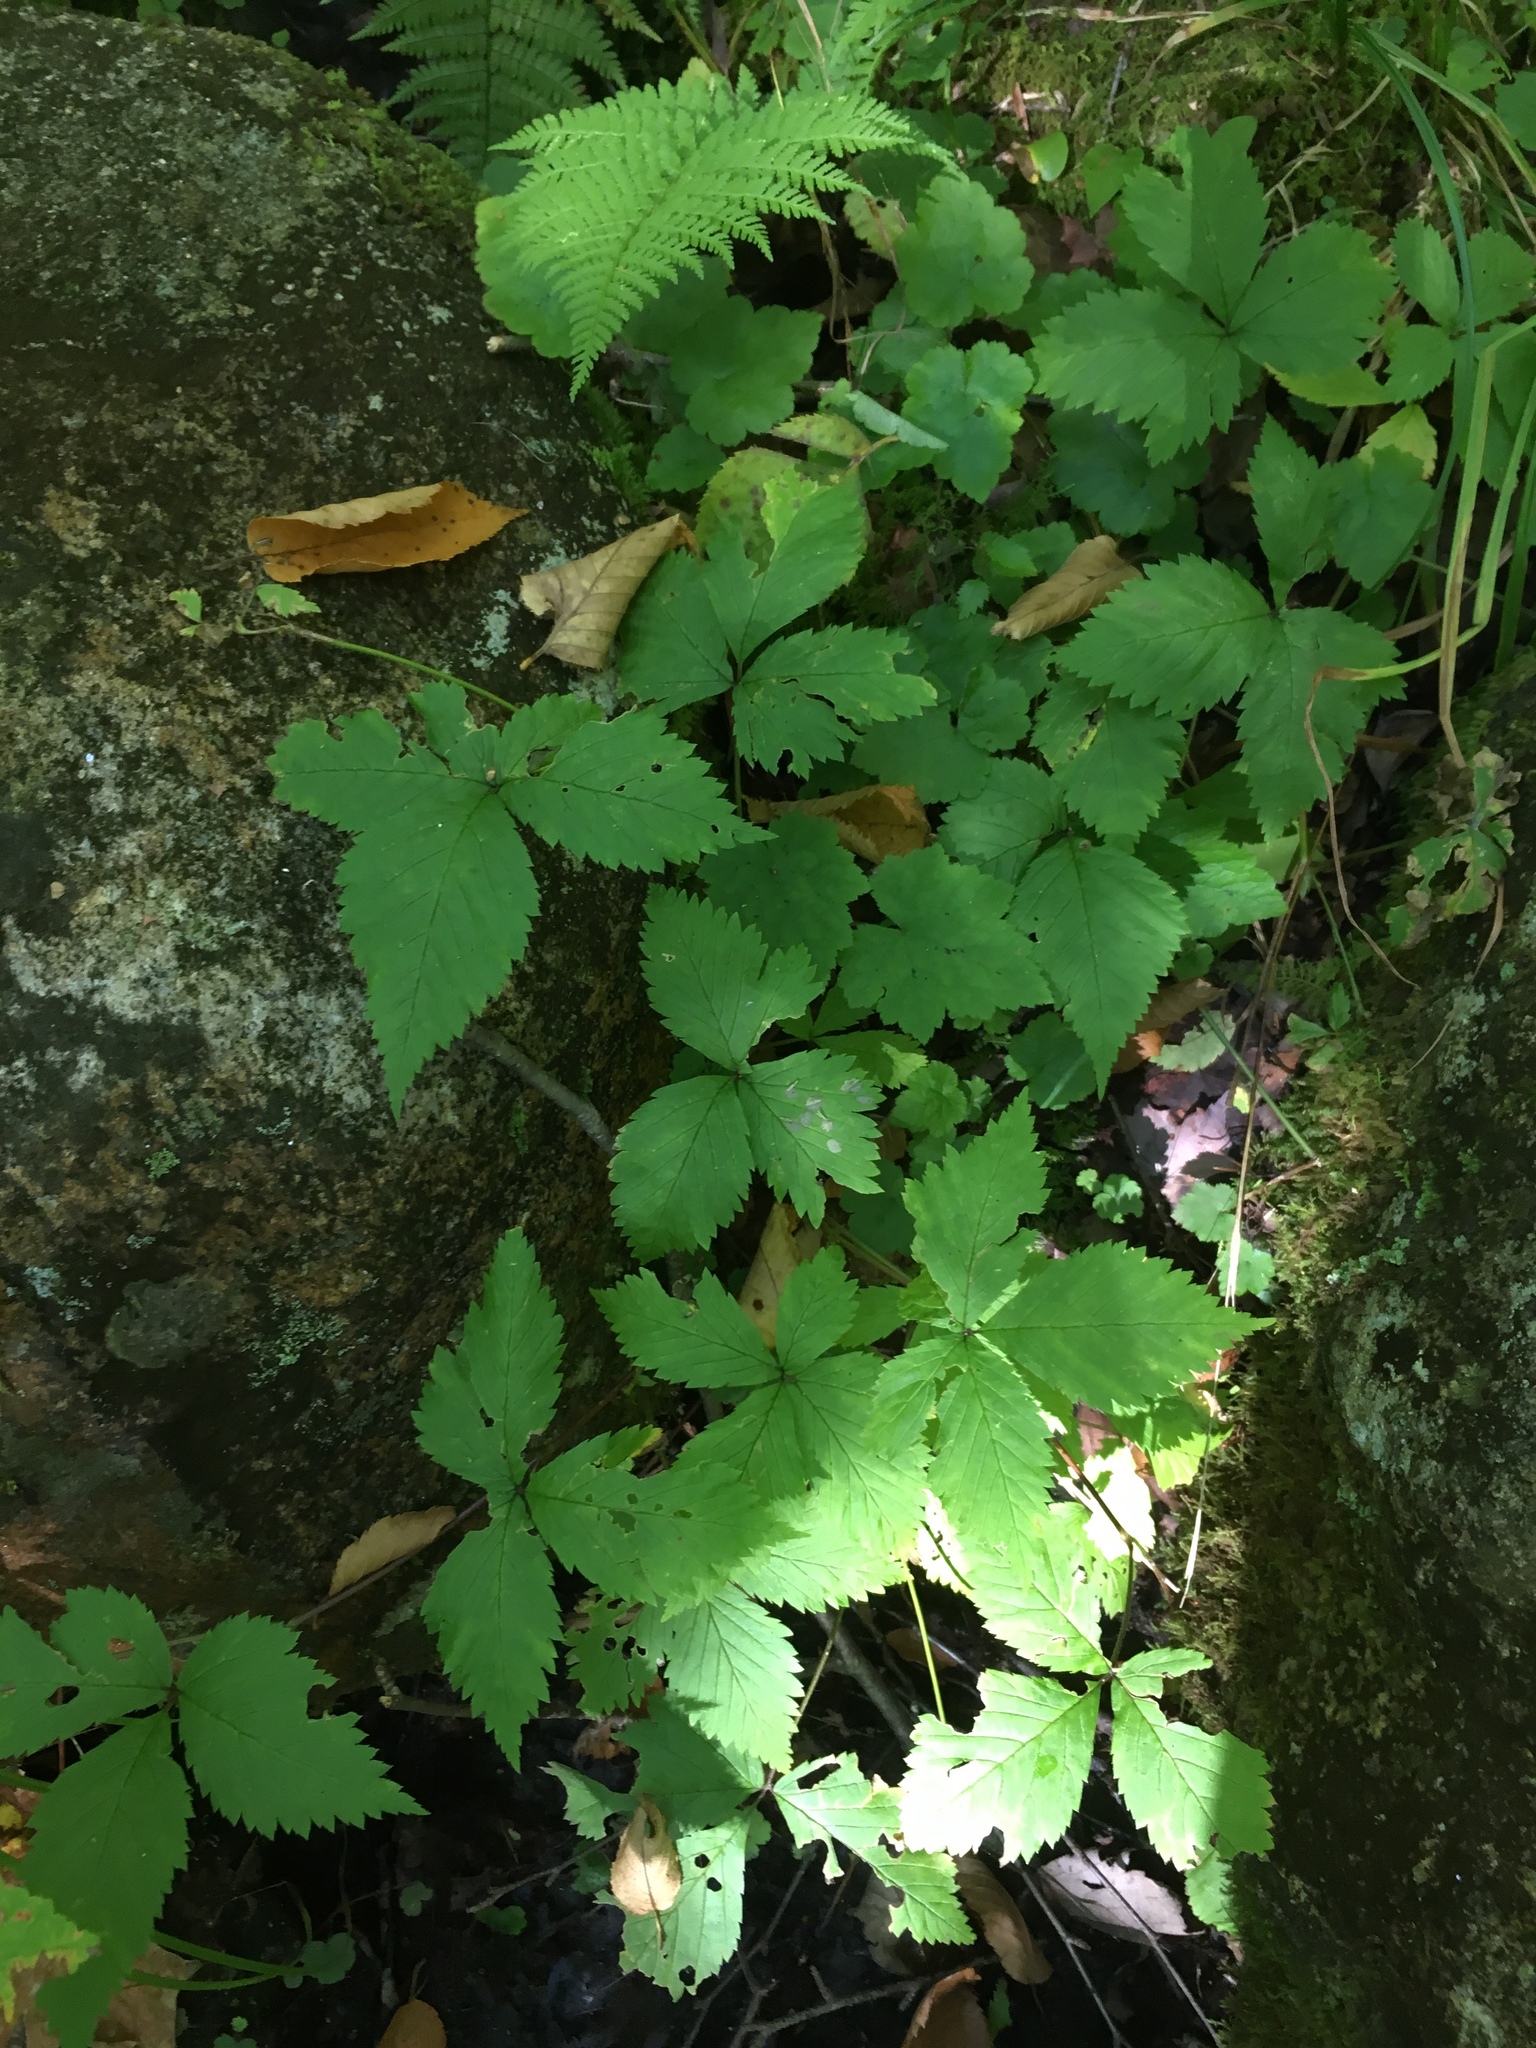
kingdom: Plantae
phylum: Tracheophyta
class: Magnoliopsida
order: Rosales
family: Rosaceae
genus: Rubus
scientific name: Rubus pubescens
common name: Dwarf raspberry
